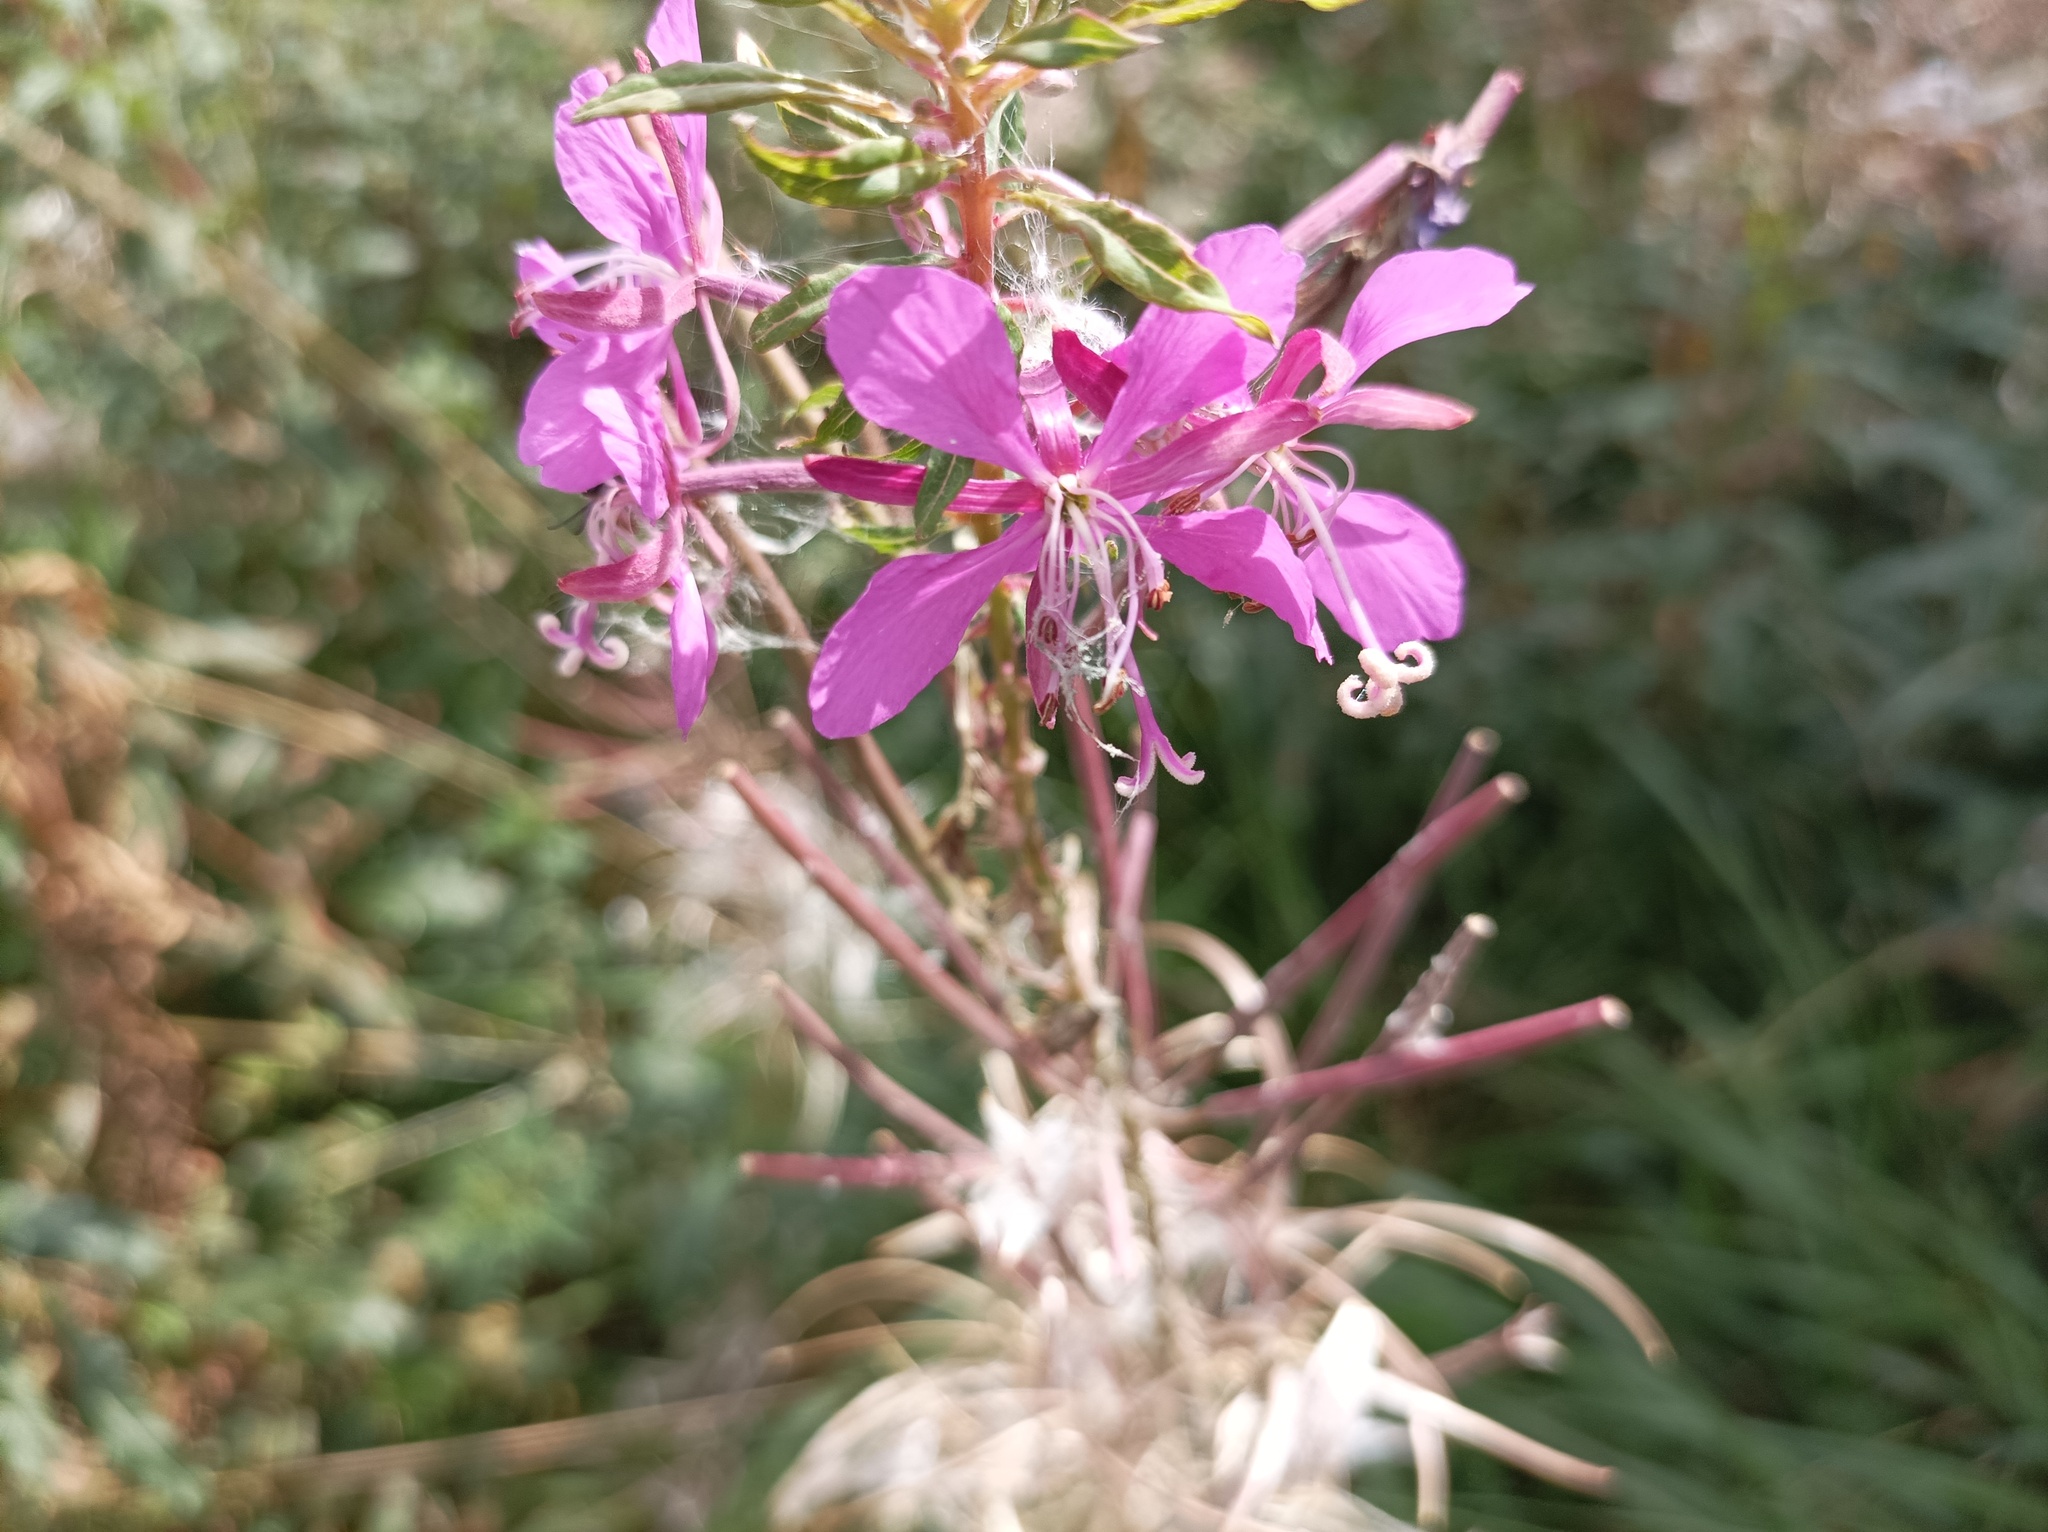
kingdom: Plantae
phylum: Tracheophyta
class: Magnoliopsida
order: Myrtales
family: Onagraceae
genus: Chamaenerion
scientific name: Chamaenerion angustifolium
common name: Fireweed
